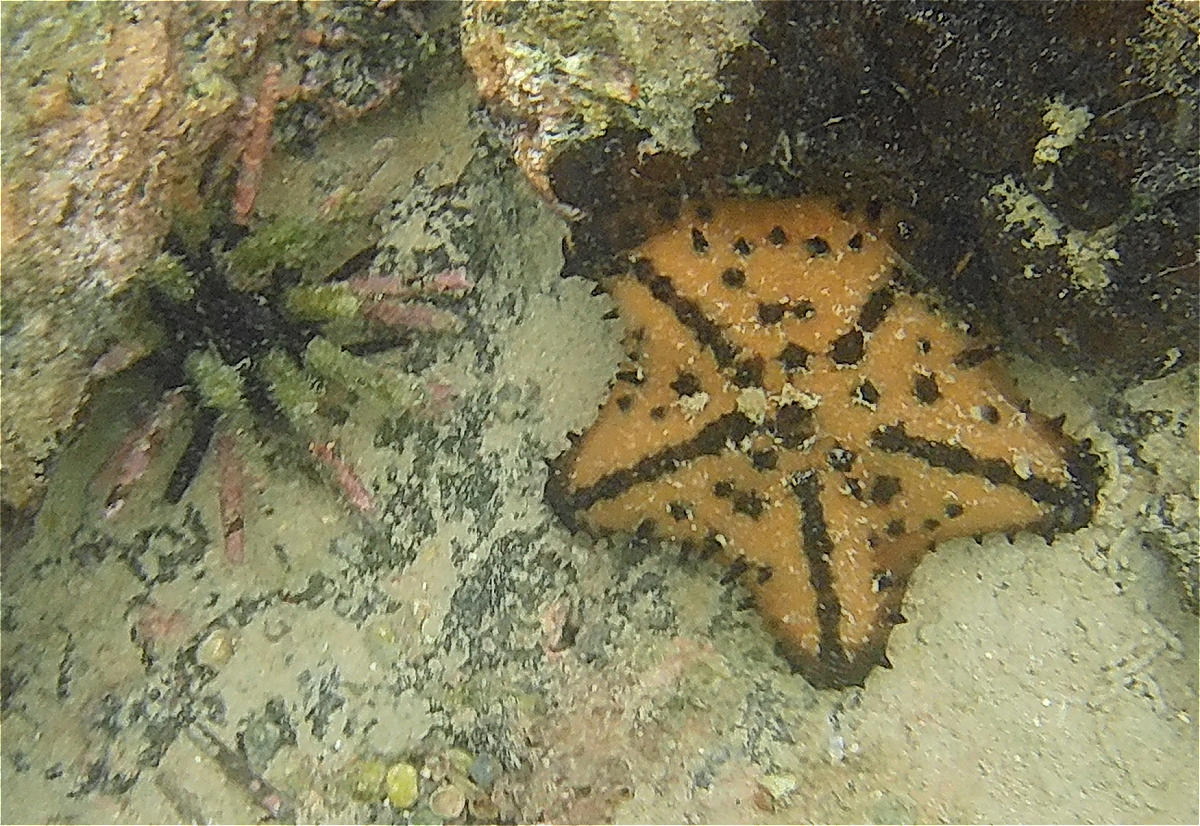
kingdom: Animalia
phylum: Echinodermata
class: Asteroidea
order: Valvatida
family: Oreasteridae
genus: Nidorellia
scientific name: Nidorellia armata
